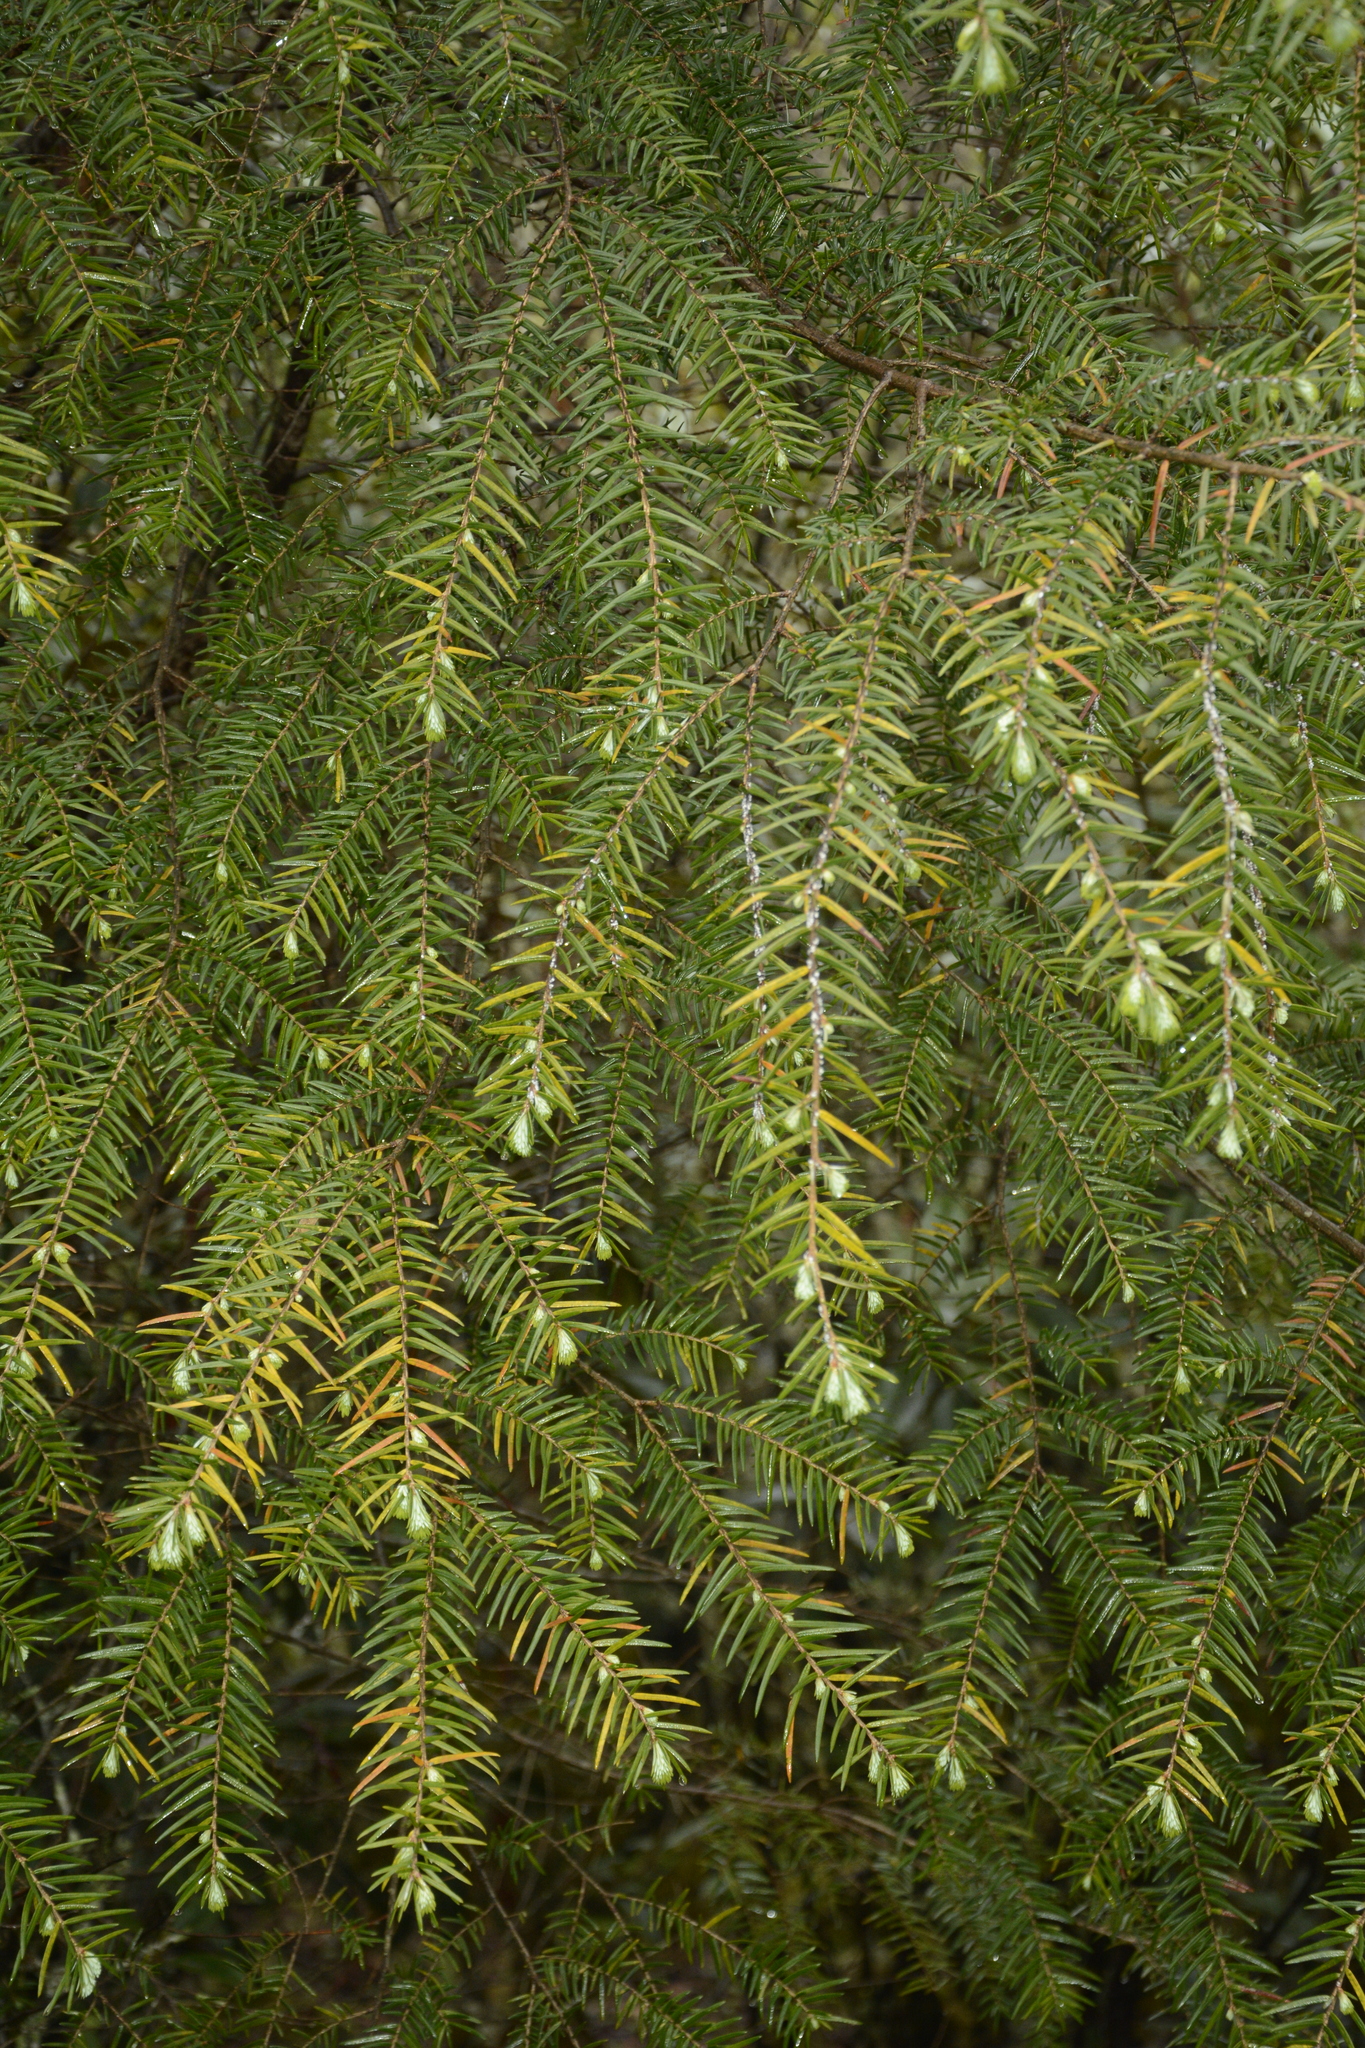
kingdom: Plantae
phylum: Tracheophyta
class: Pinopsida
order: Pinales
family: Pinaceae
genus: Tsuga
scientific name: Tsuga dumosa
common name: Himalayan hemlock
